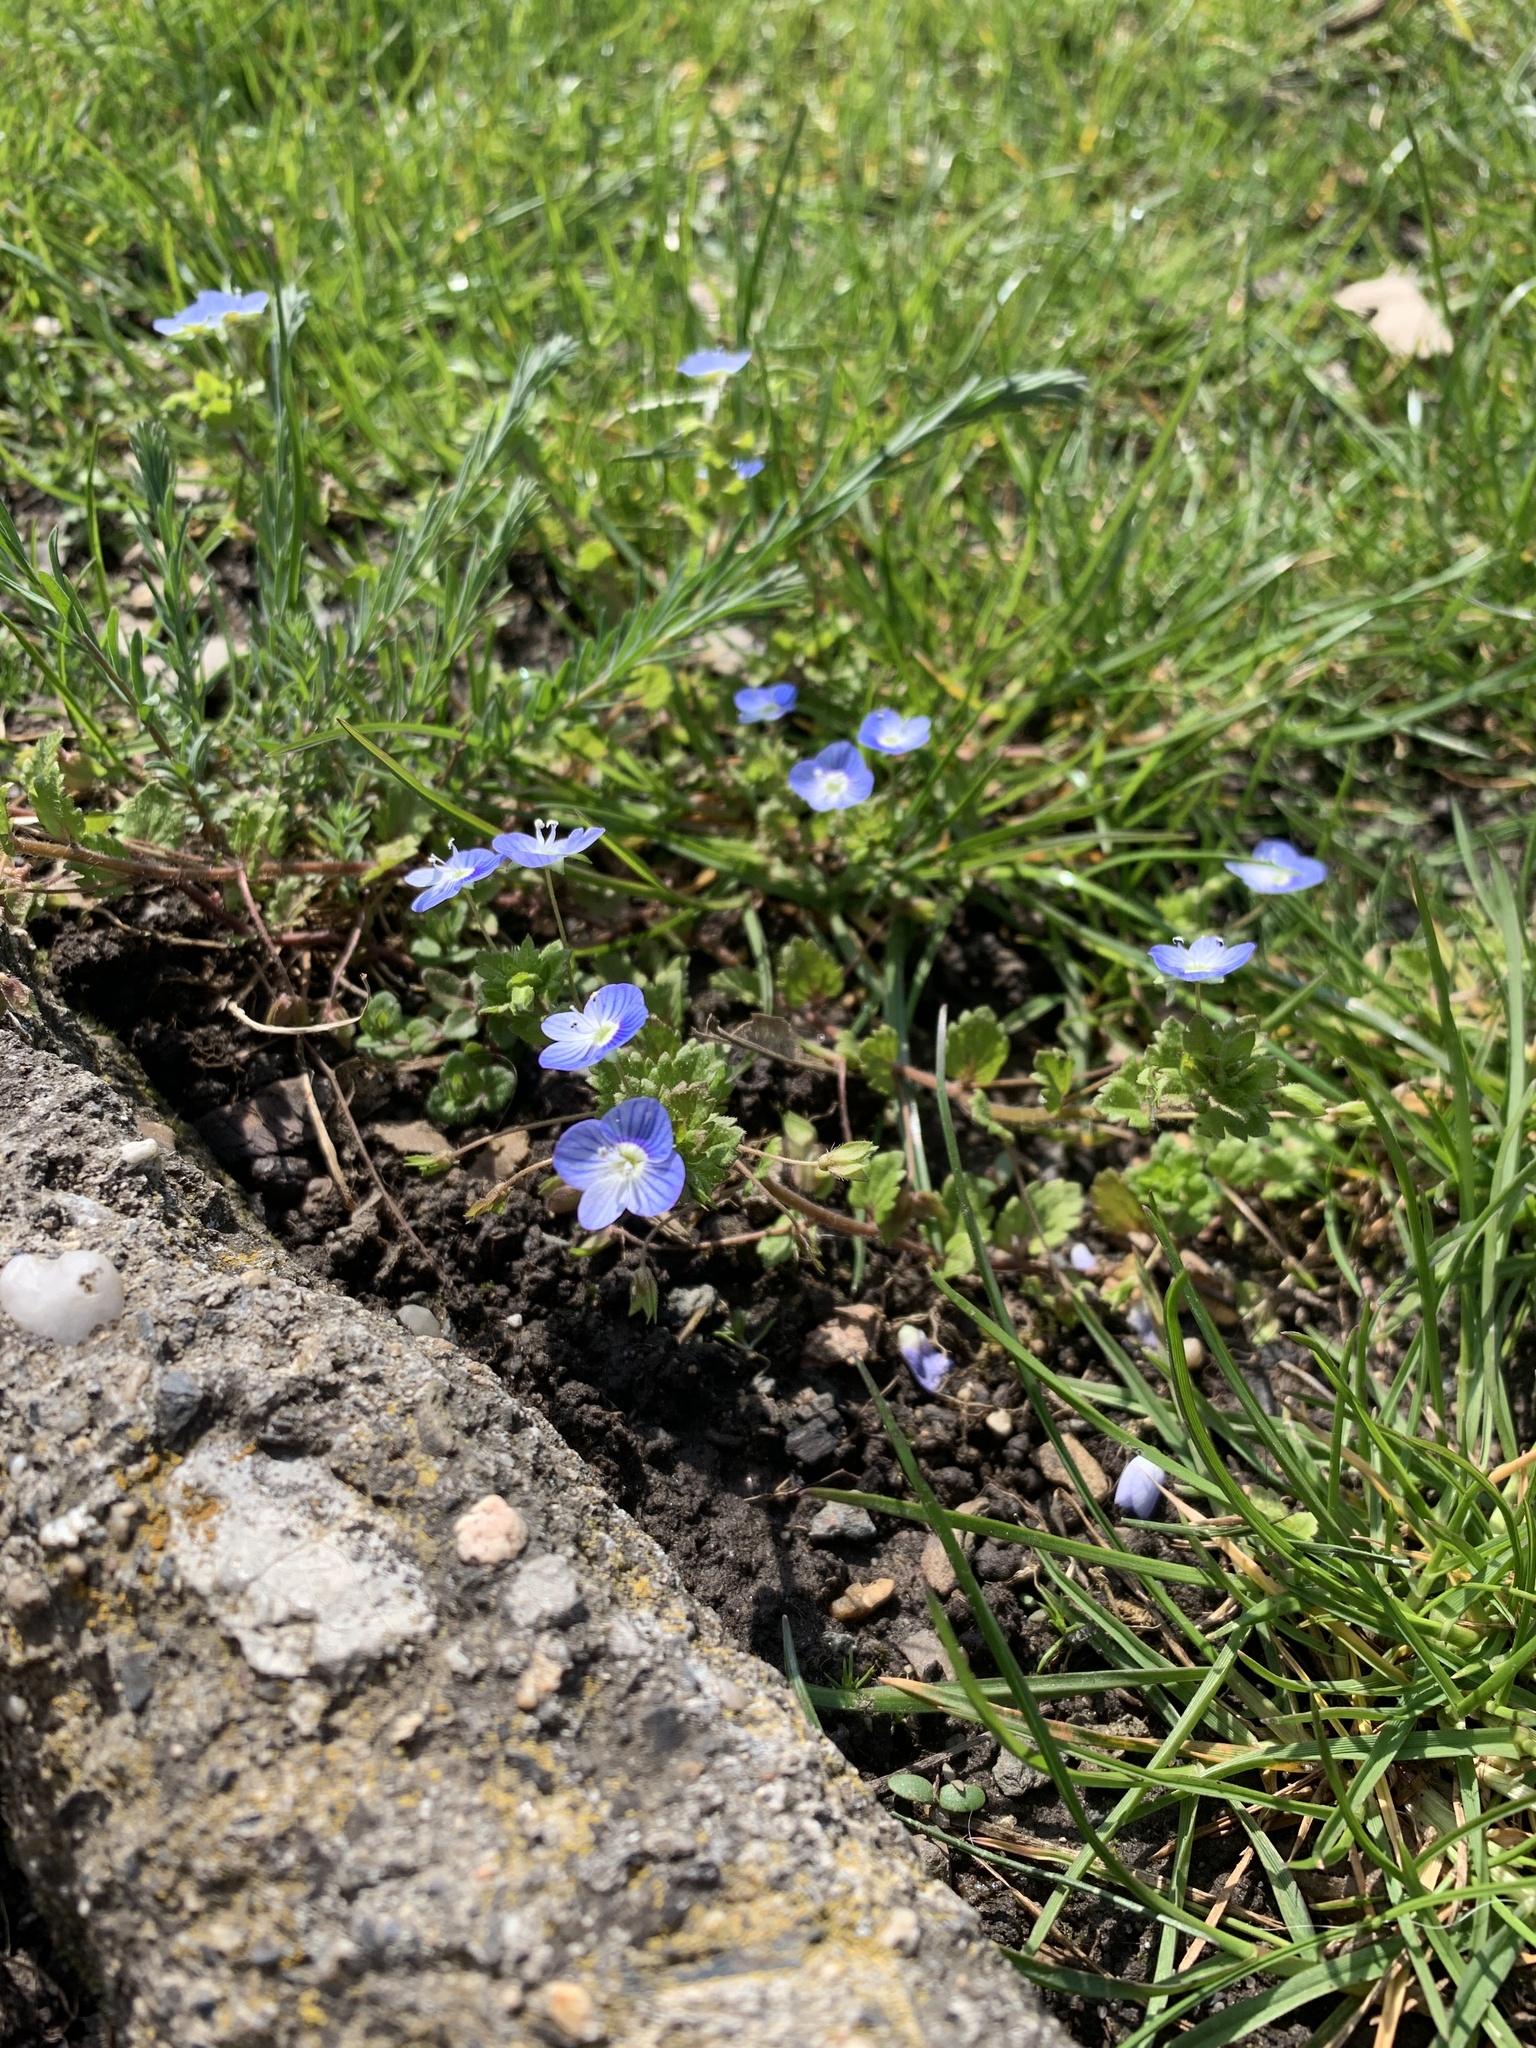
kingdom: Plantae
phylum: Tracheophyta
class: Magnoliopsida
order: Lamiales
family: Plantaginaceae
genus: Veronica
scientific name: Veronica persica
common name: Common field-speedwell
